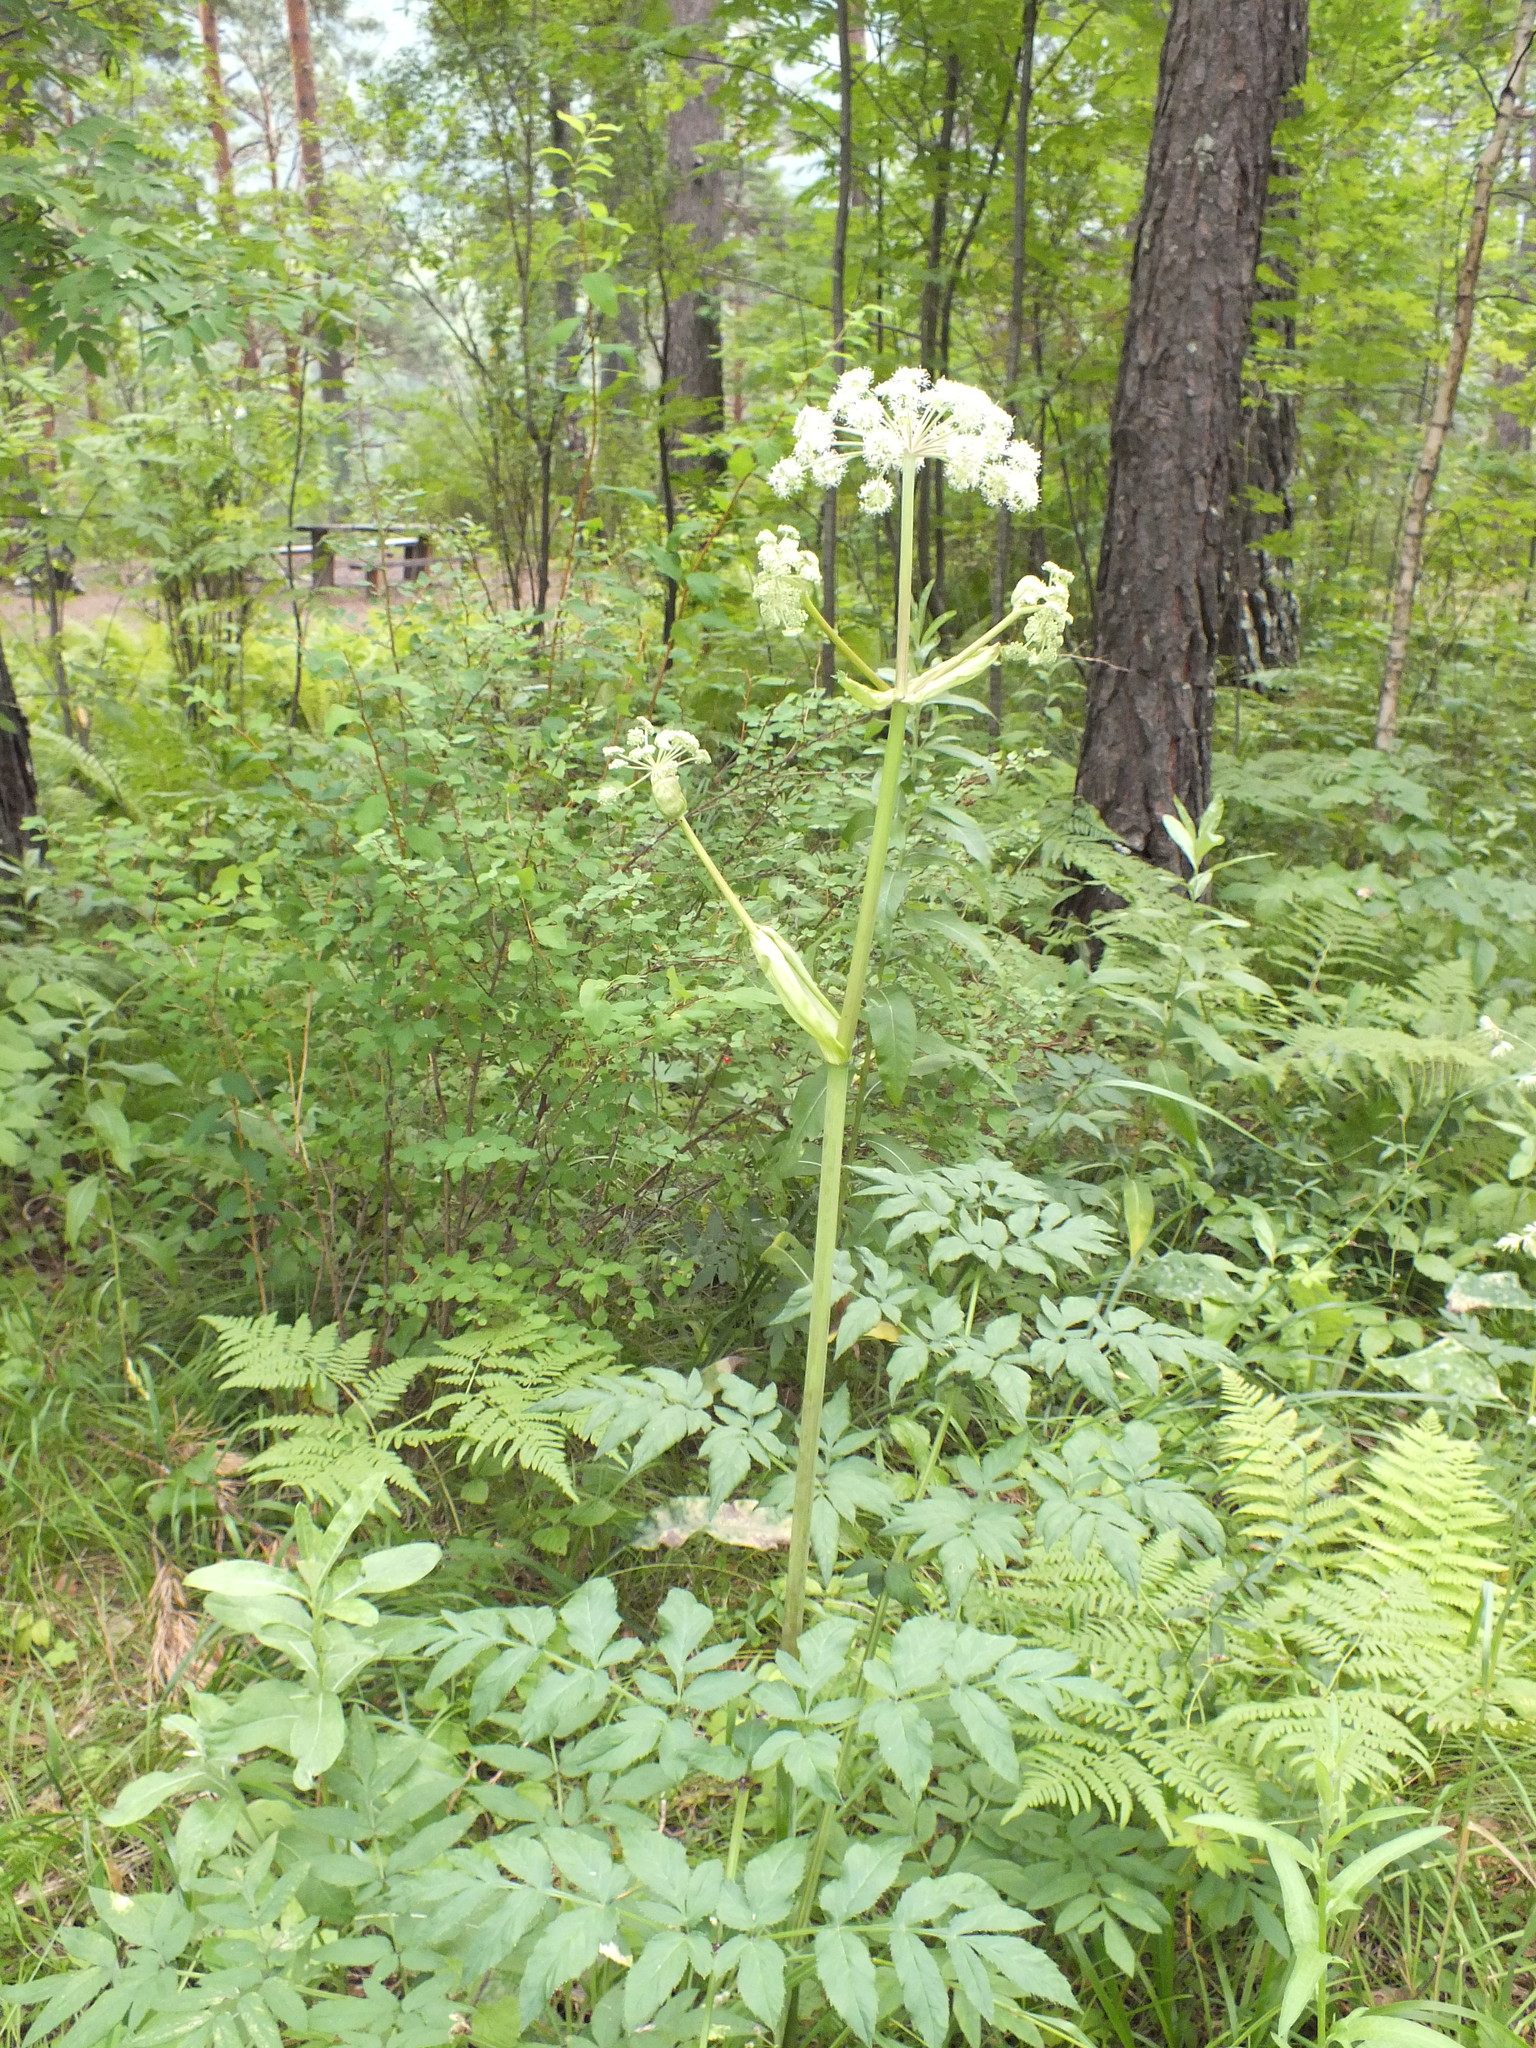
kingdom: Plantae
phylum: Tracheophyta
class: Magnoliopsida
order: Apiales
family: Apiaceae
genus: Angelica
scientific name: Angelica sylvestris
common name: Wild angelica
